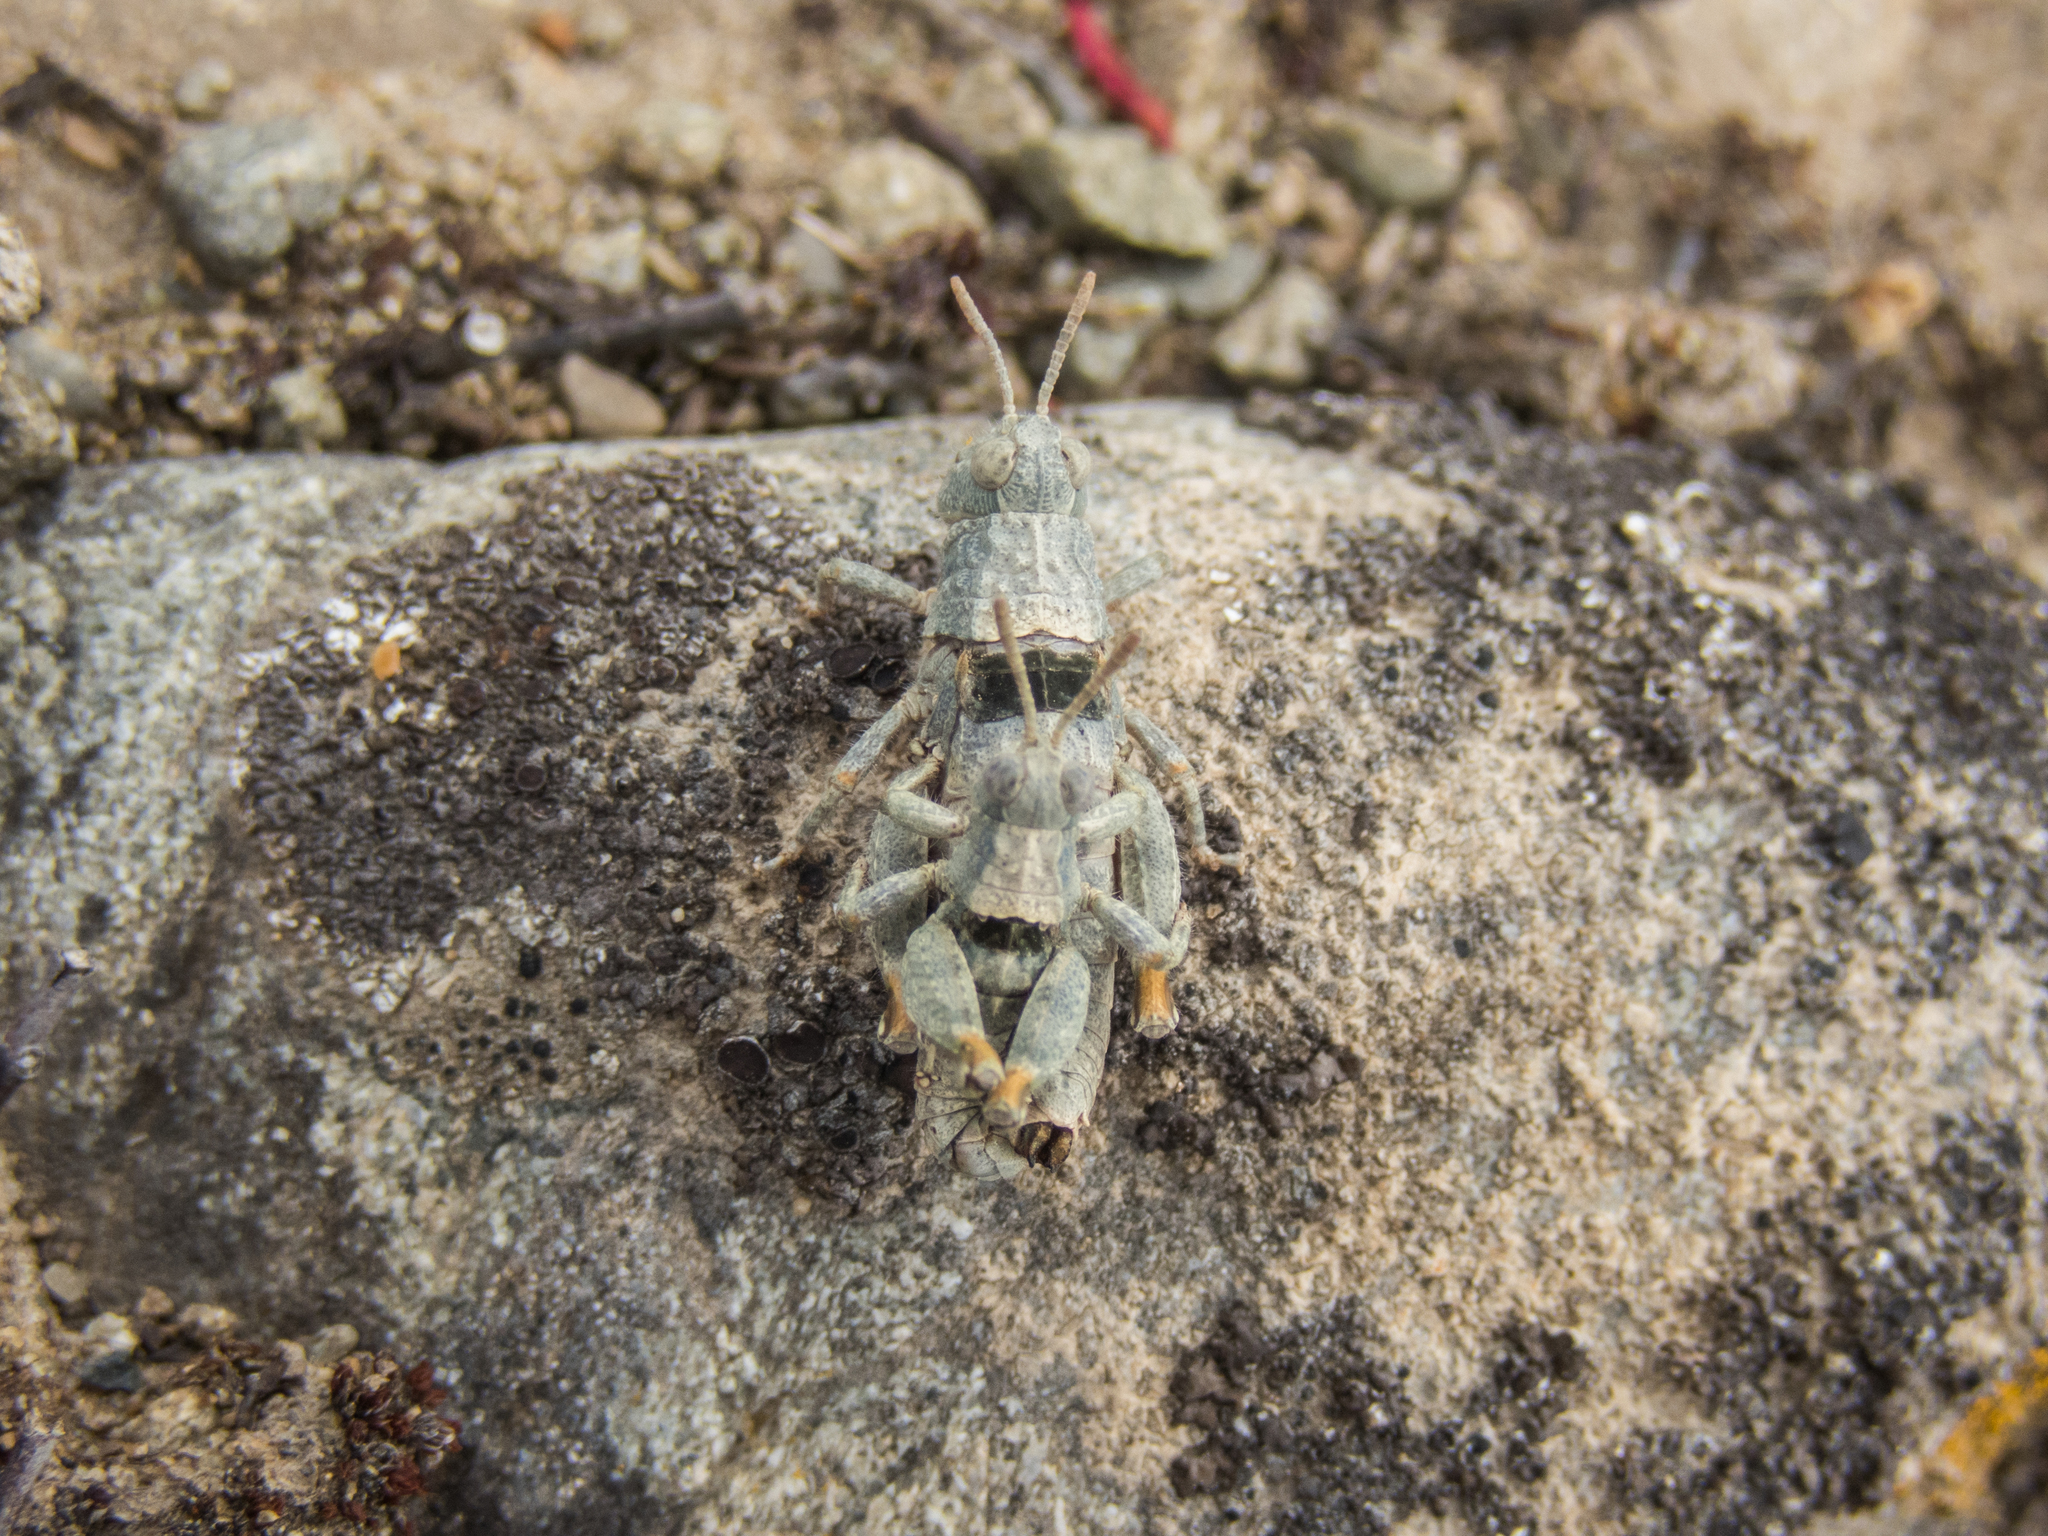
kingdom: Animalia
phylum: Arthropoda
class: Insecta
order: Orthoptera
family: Acrididae
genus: Sigaus
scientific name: Sigaus minutus
